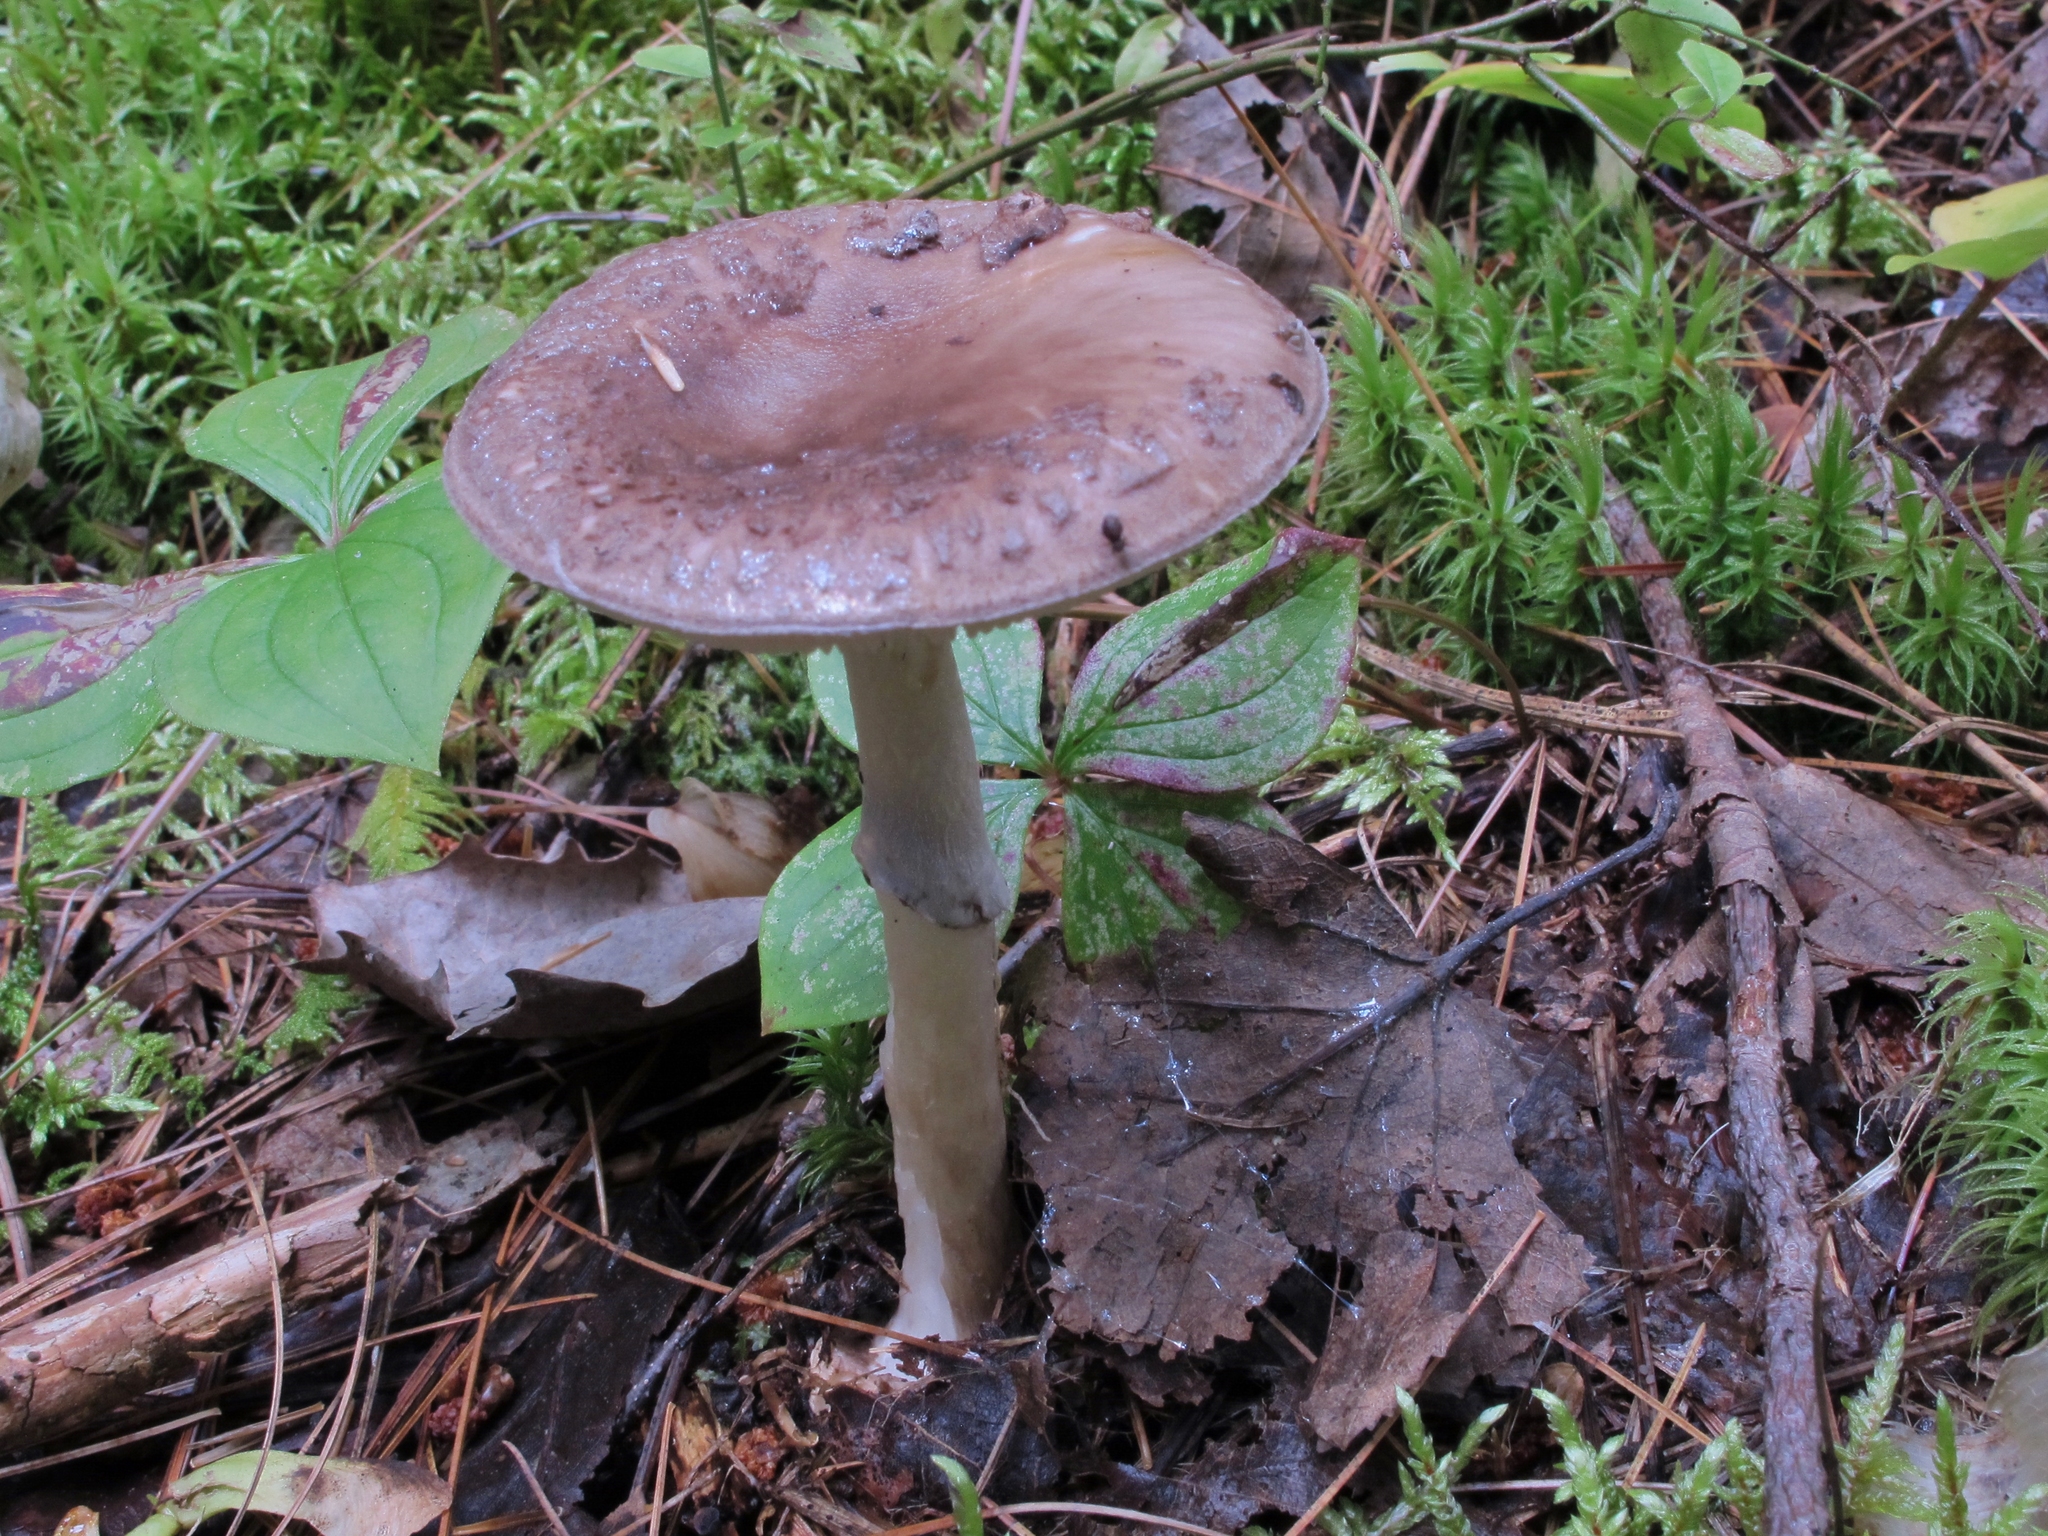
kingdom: Fungi
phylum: Basidiomycota
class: Agaricomycetes
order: Agaricales
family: Amanitaceae
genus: Amanita
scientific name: Amanita porphyria
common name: Grey veiled amanita
